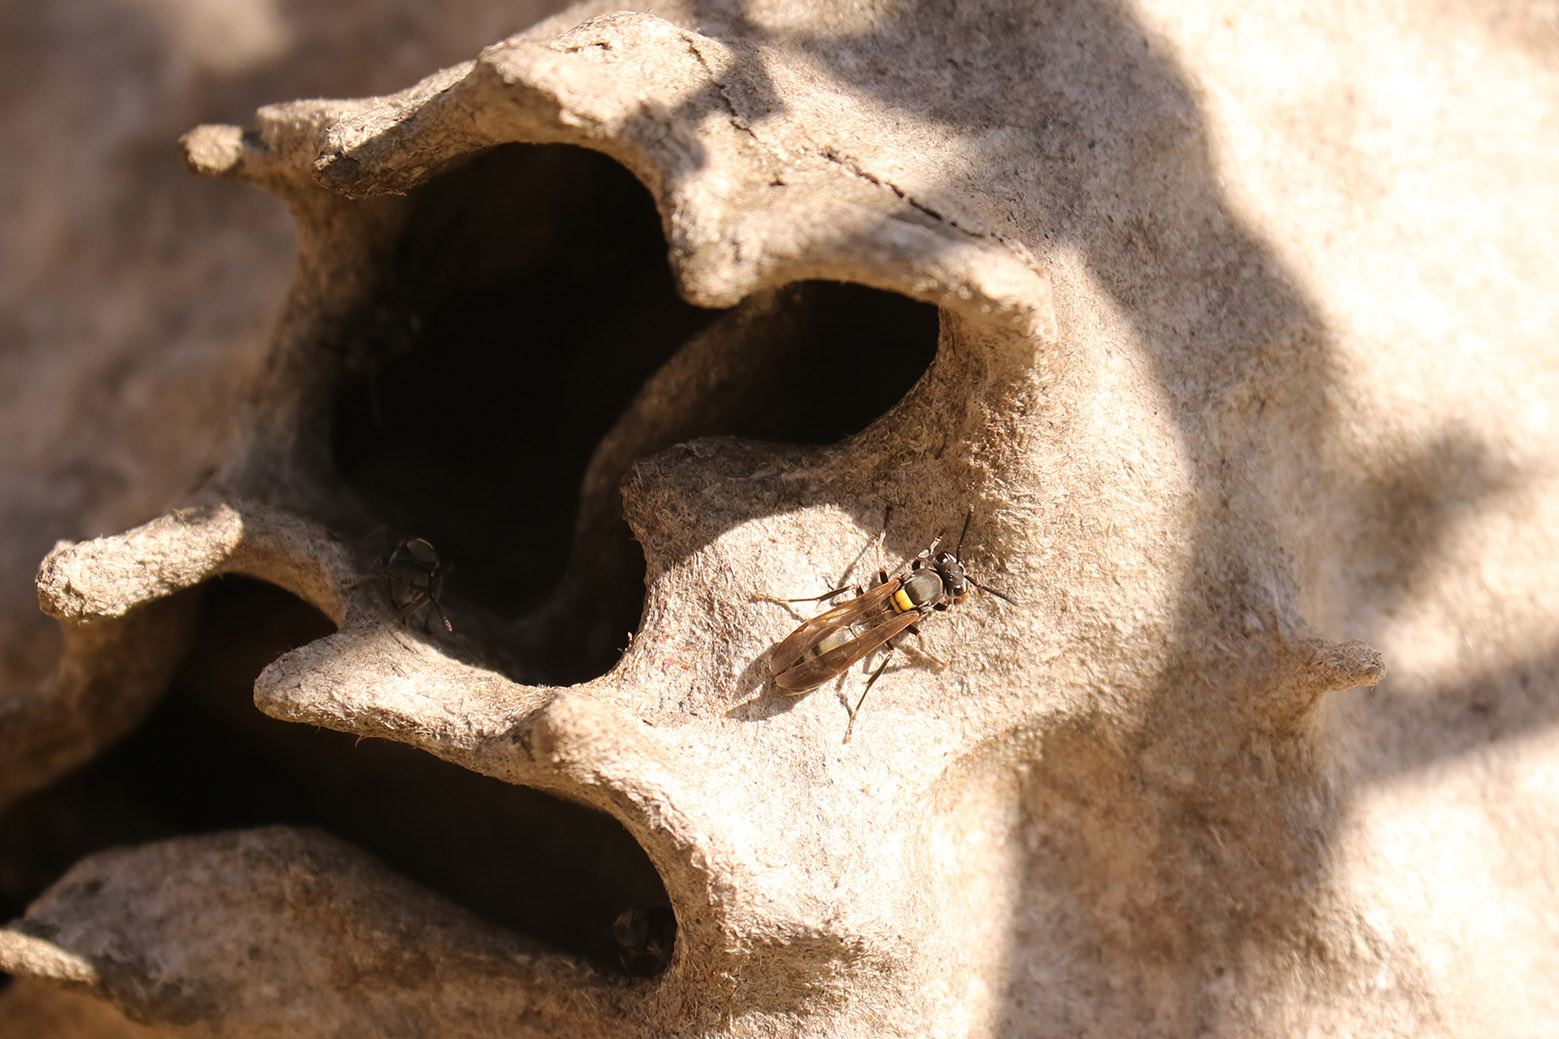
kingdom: Animalia
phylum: Arthropoda
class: Insecta
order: Hymenoptera
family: Eumenidae
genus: Polybia
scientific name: Polybia scutellaris
